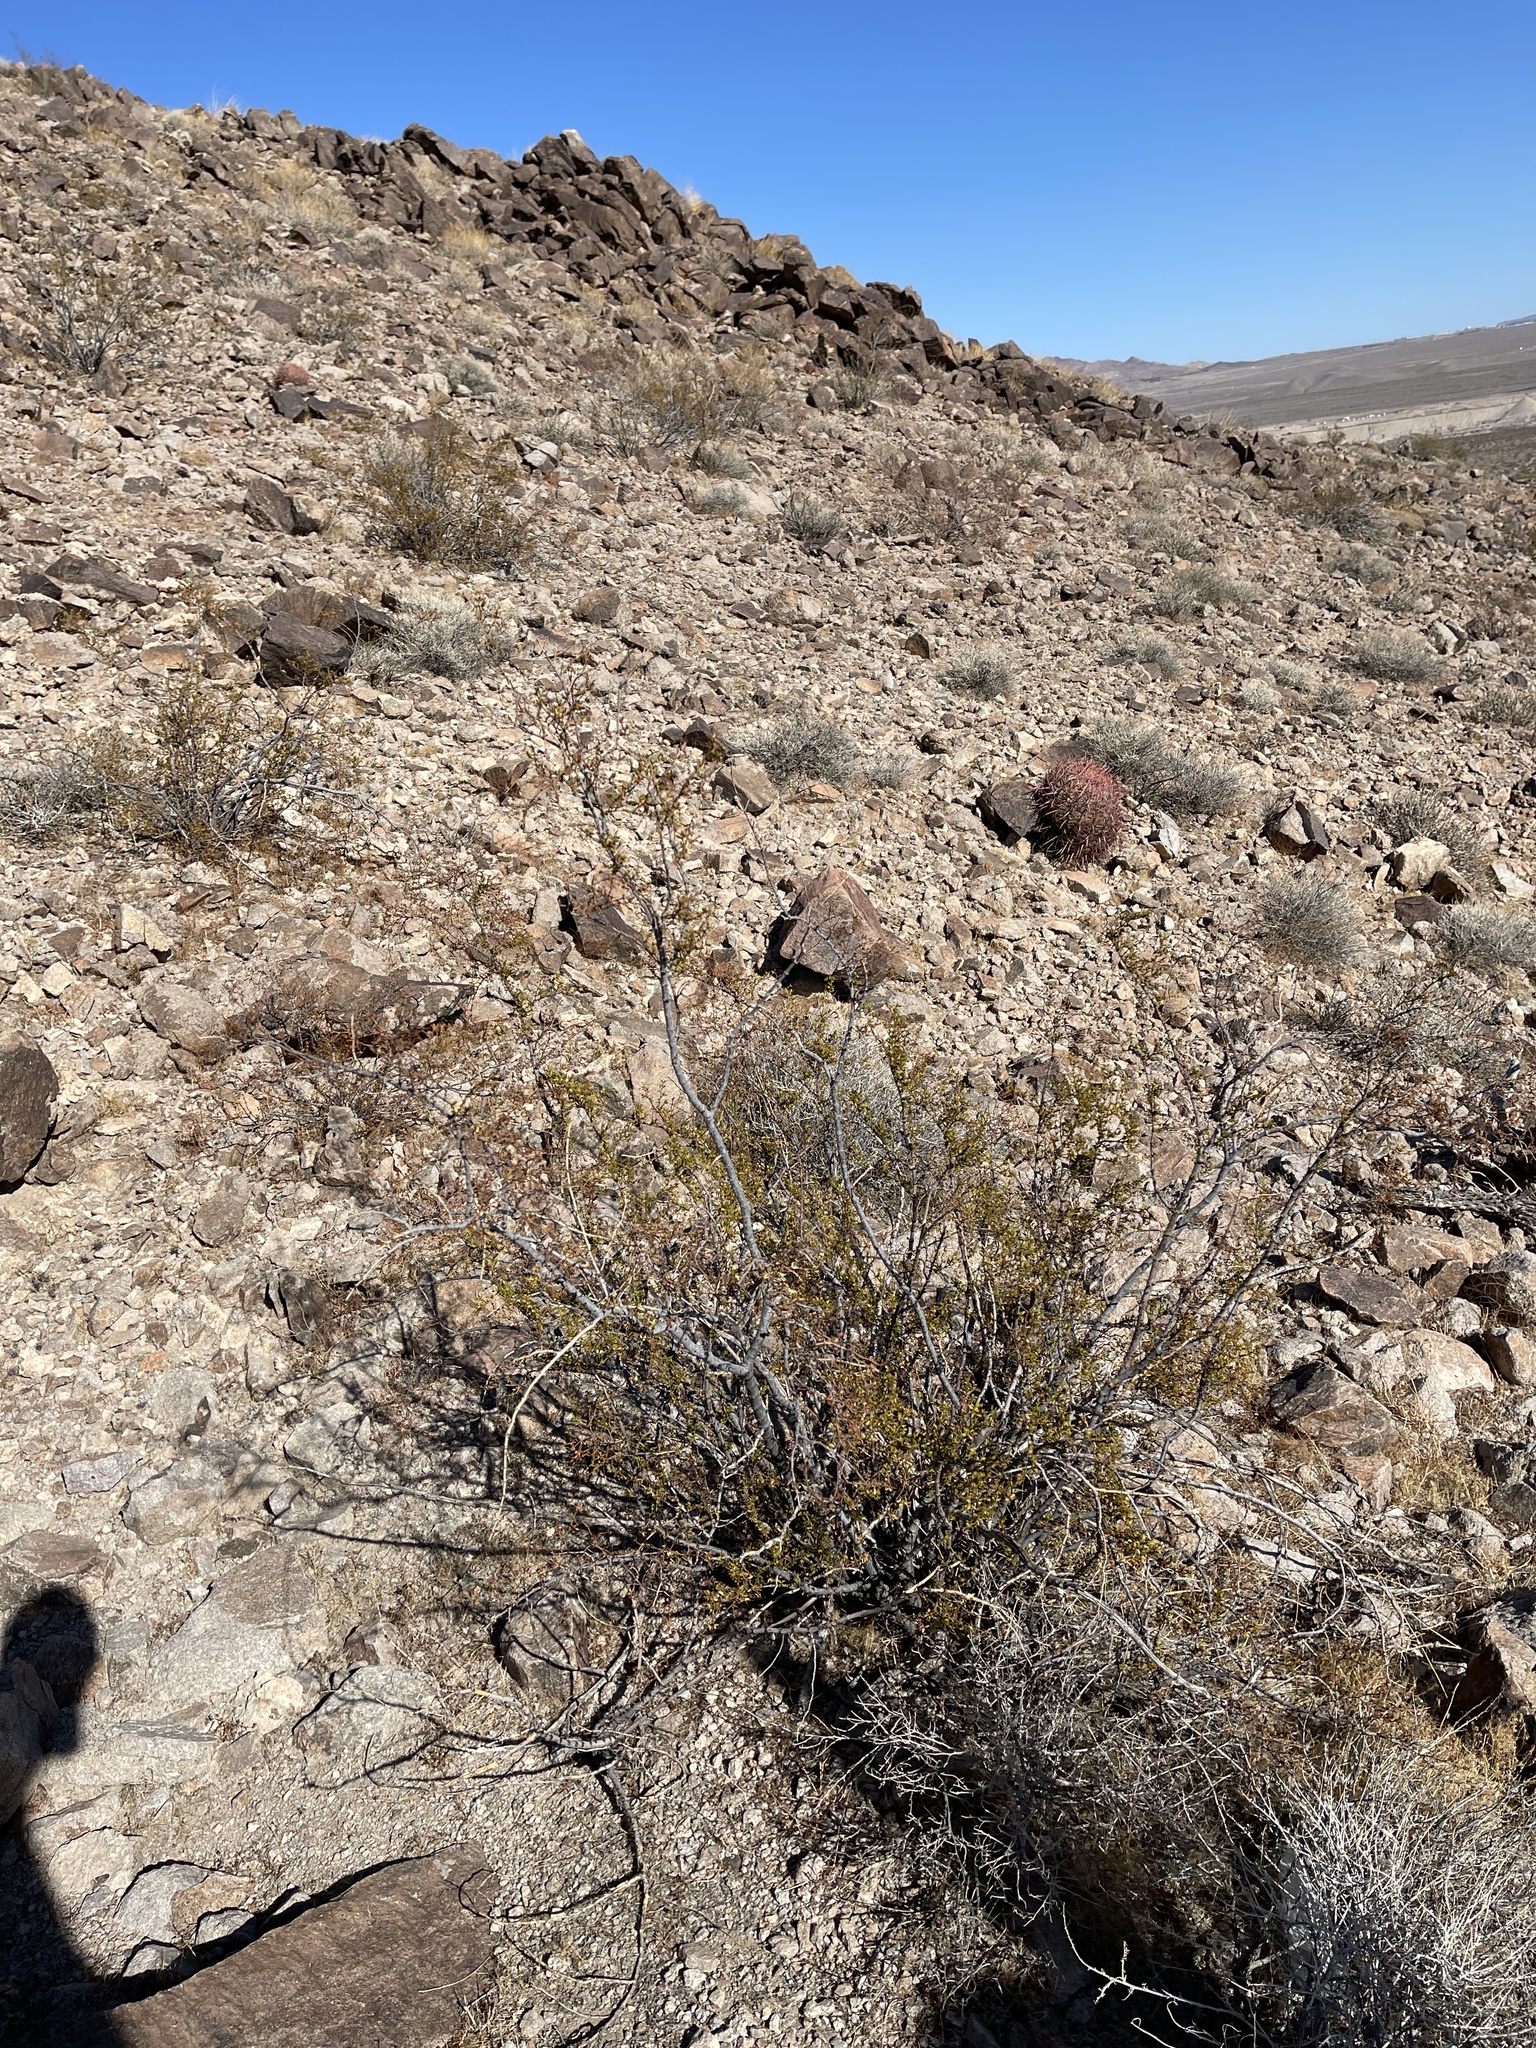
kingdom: Plantae
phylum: Tracheophyta
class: Magnoliopsida
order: Zygophyllales
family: Zygophyllaceae
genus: Larrea
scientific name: Larrea tridentata
